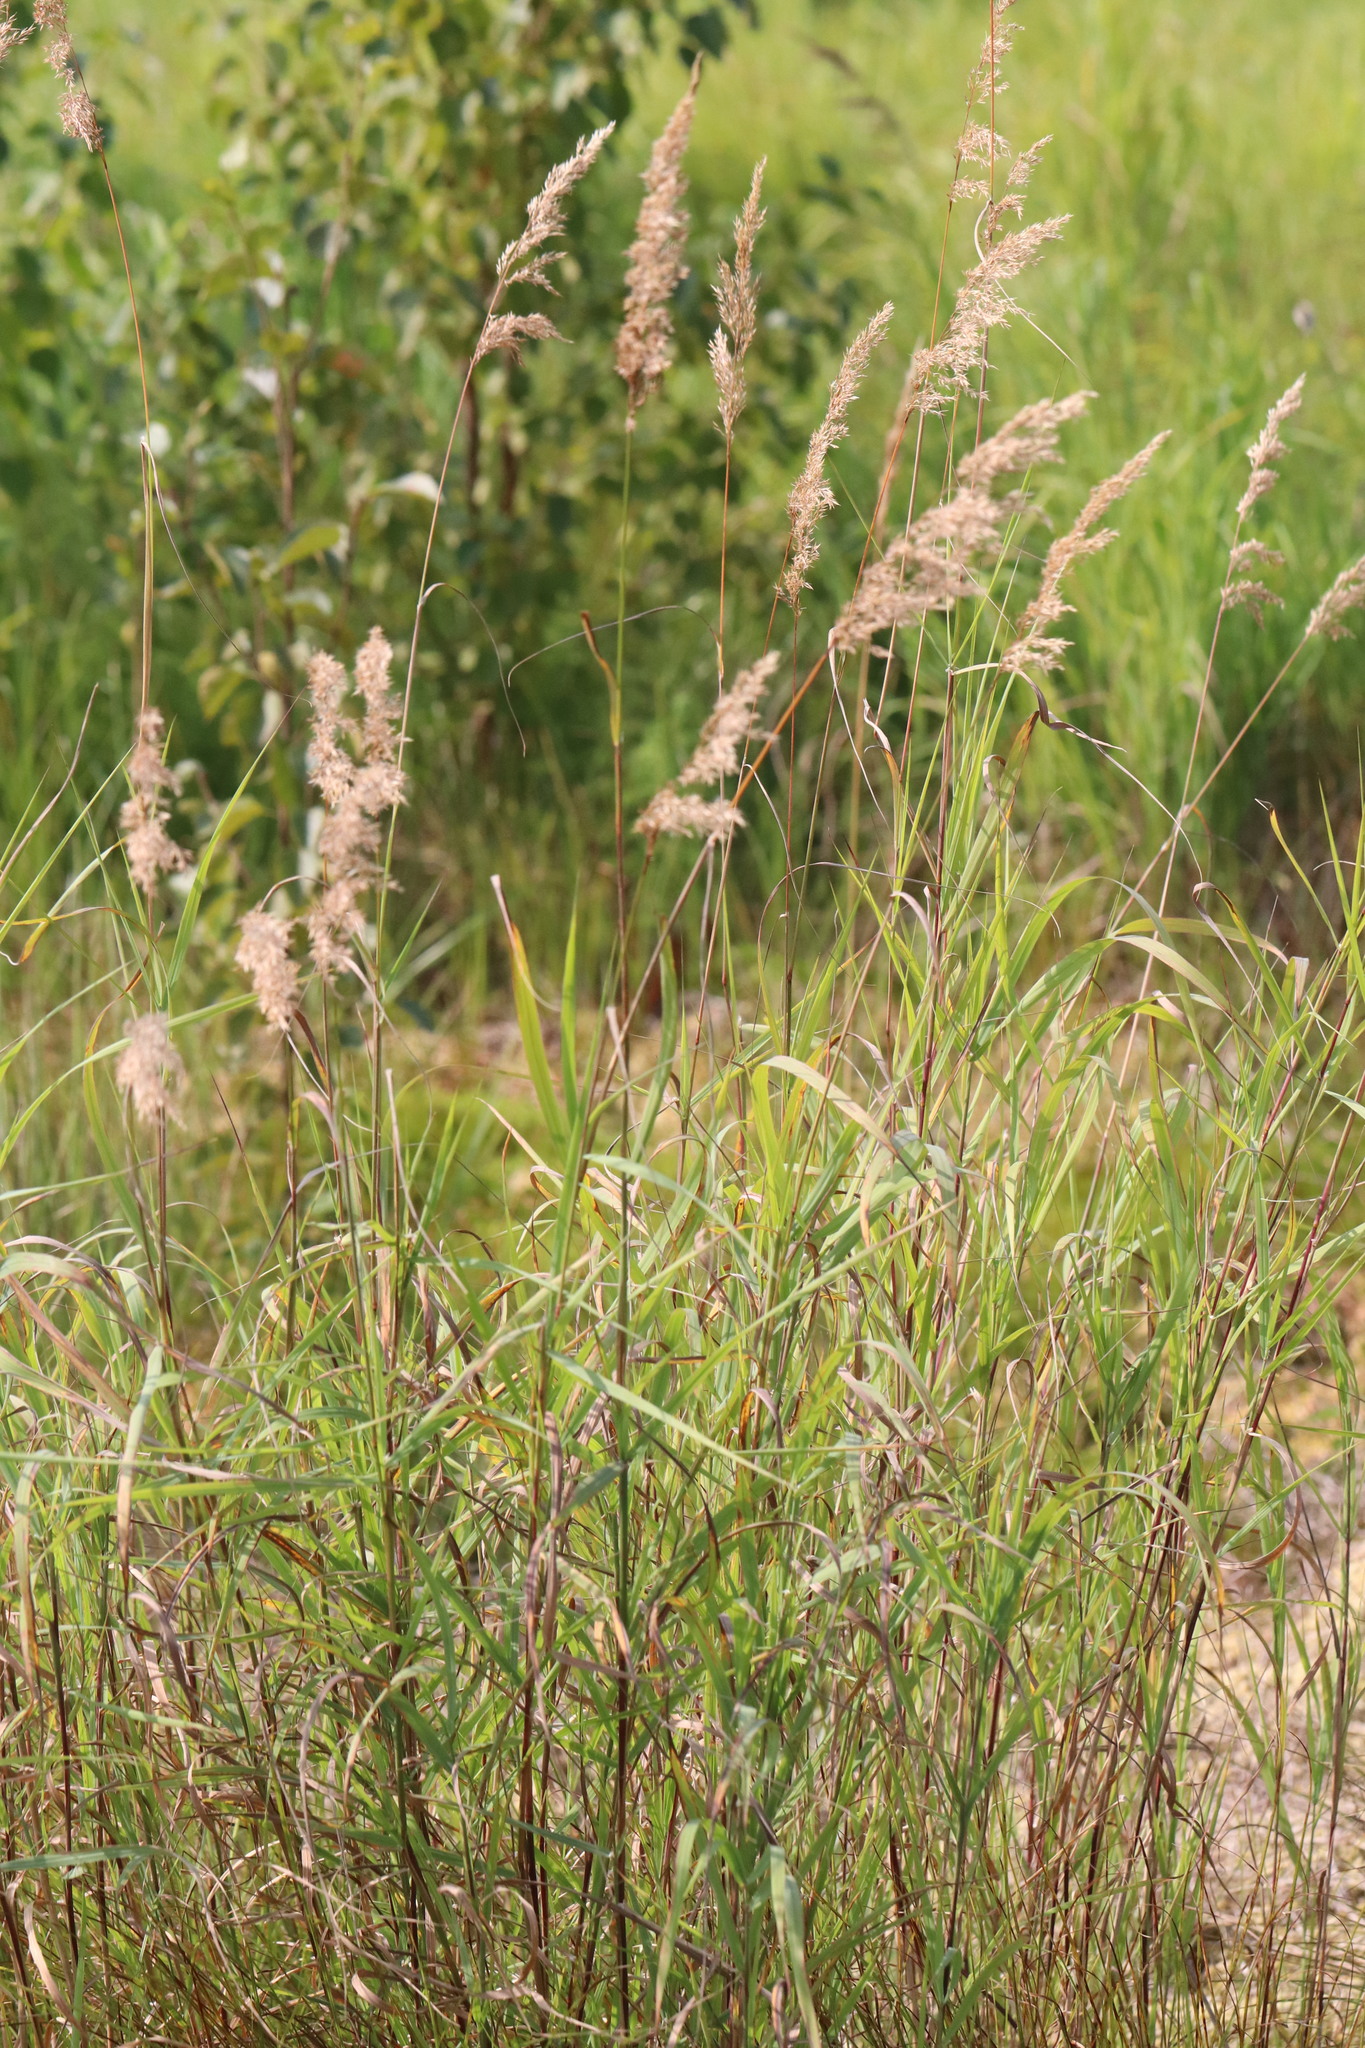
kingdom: Plantae
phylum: Tracheophyta
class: Liliopsida
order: Poales
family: Poaceae
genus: Calamagrostis
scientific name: Calamagrostis purpurea
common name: Scandinavian small-reed
